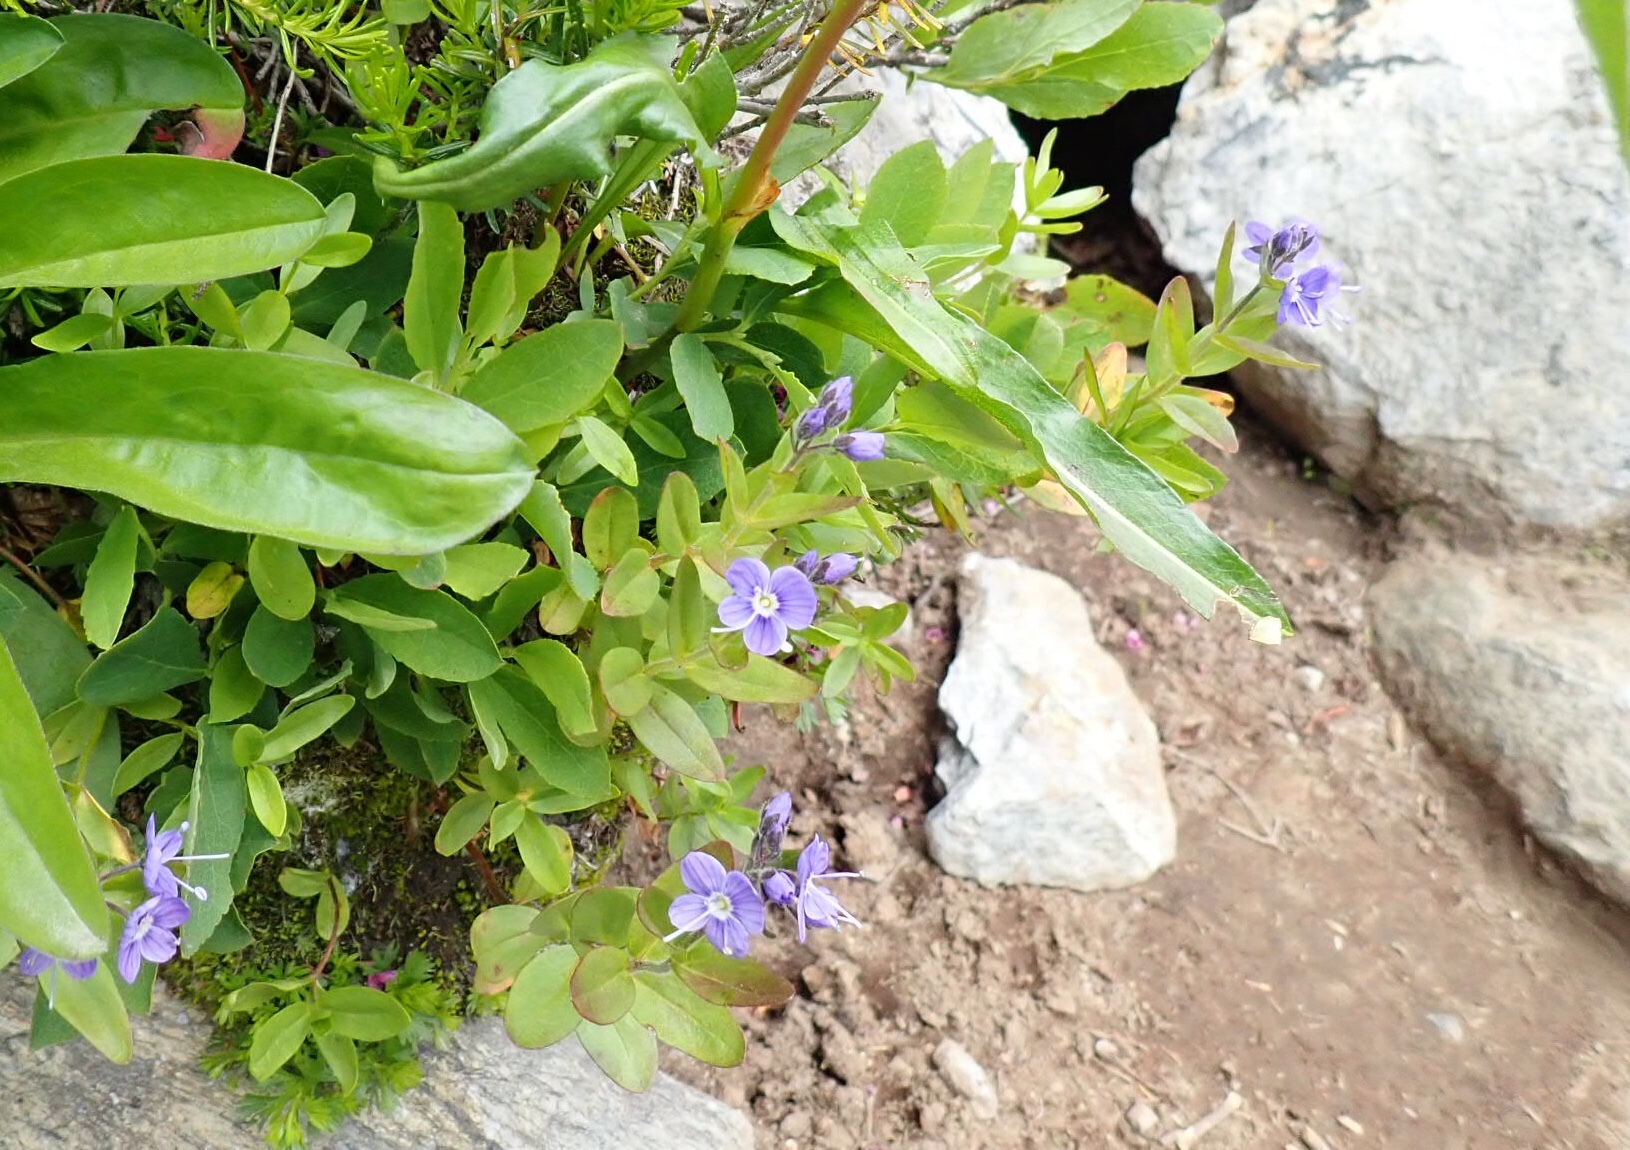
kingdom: Plantae
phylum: Tracheophyta
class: Magnoliopsida
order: Lamiales
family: Plantaginaceae
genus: Veronica
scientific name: Veronica cusickii
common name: Cusick's speedwell
